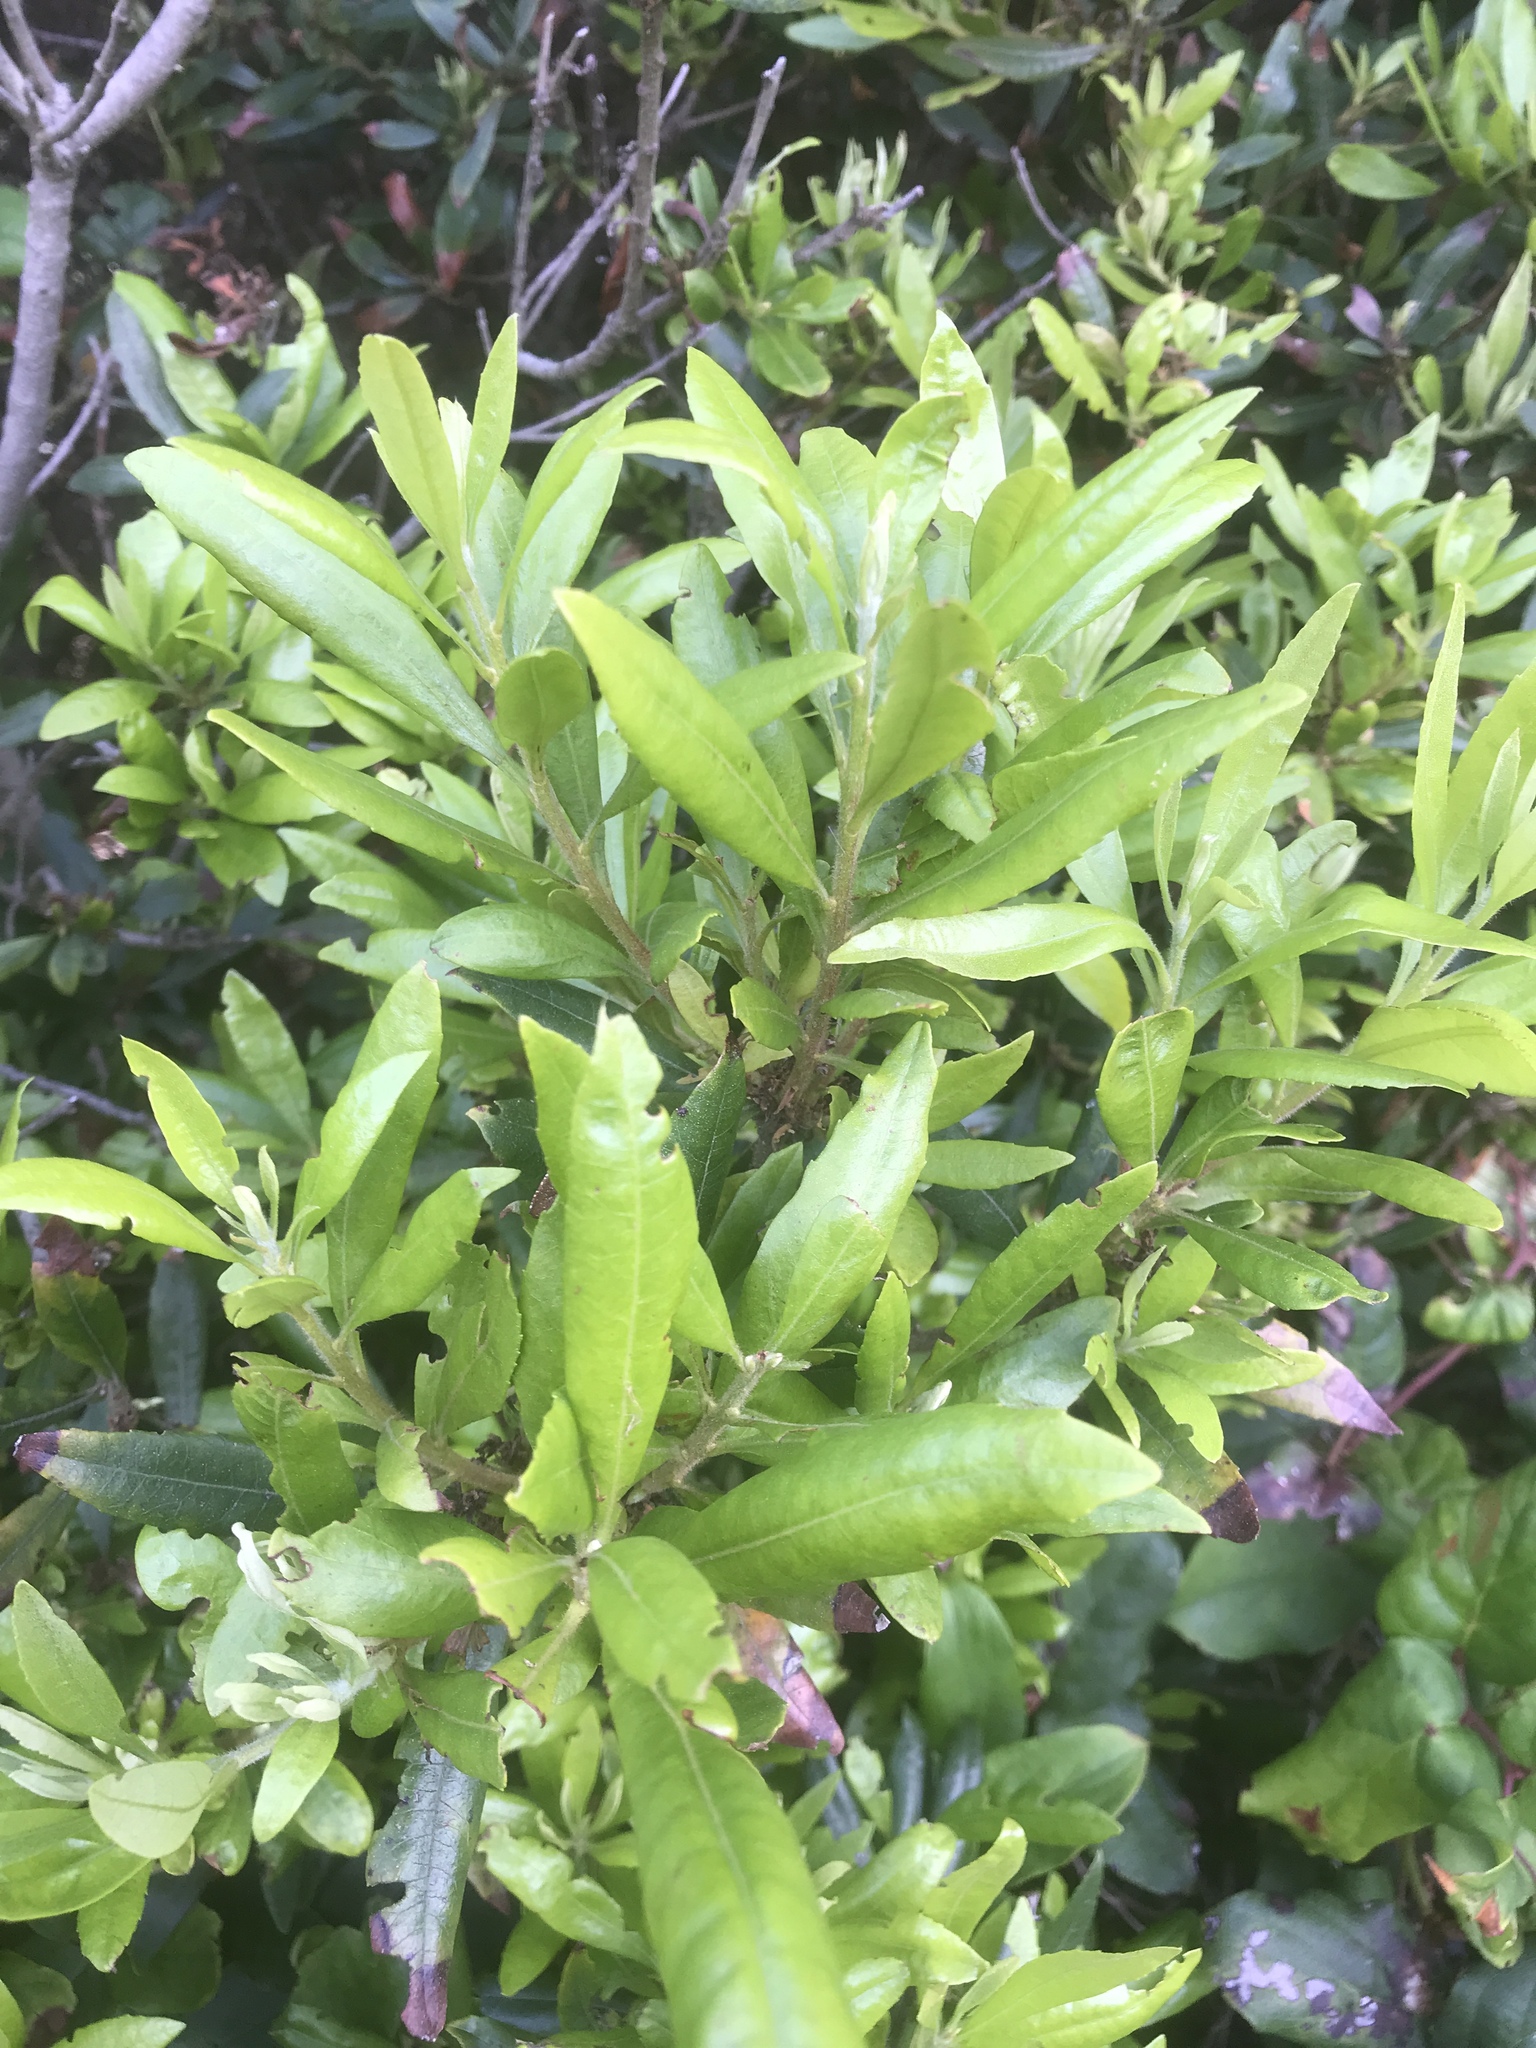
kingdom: Plantae
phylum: Tracheophyta
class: Magnoliopsida
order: Fagales
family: Myricaceae
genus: Morella
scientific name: Morella californica
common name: California wax-myrtle
